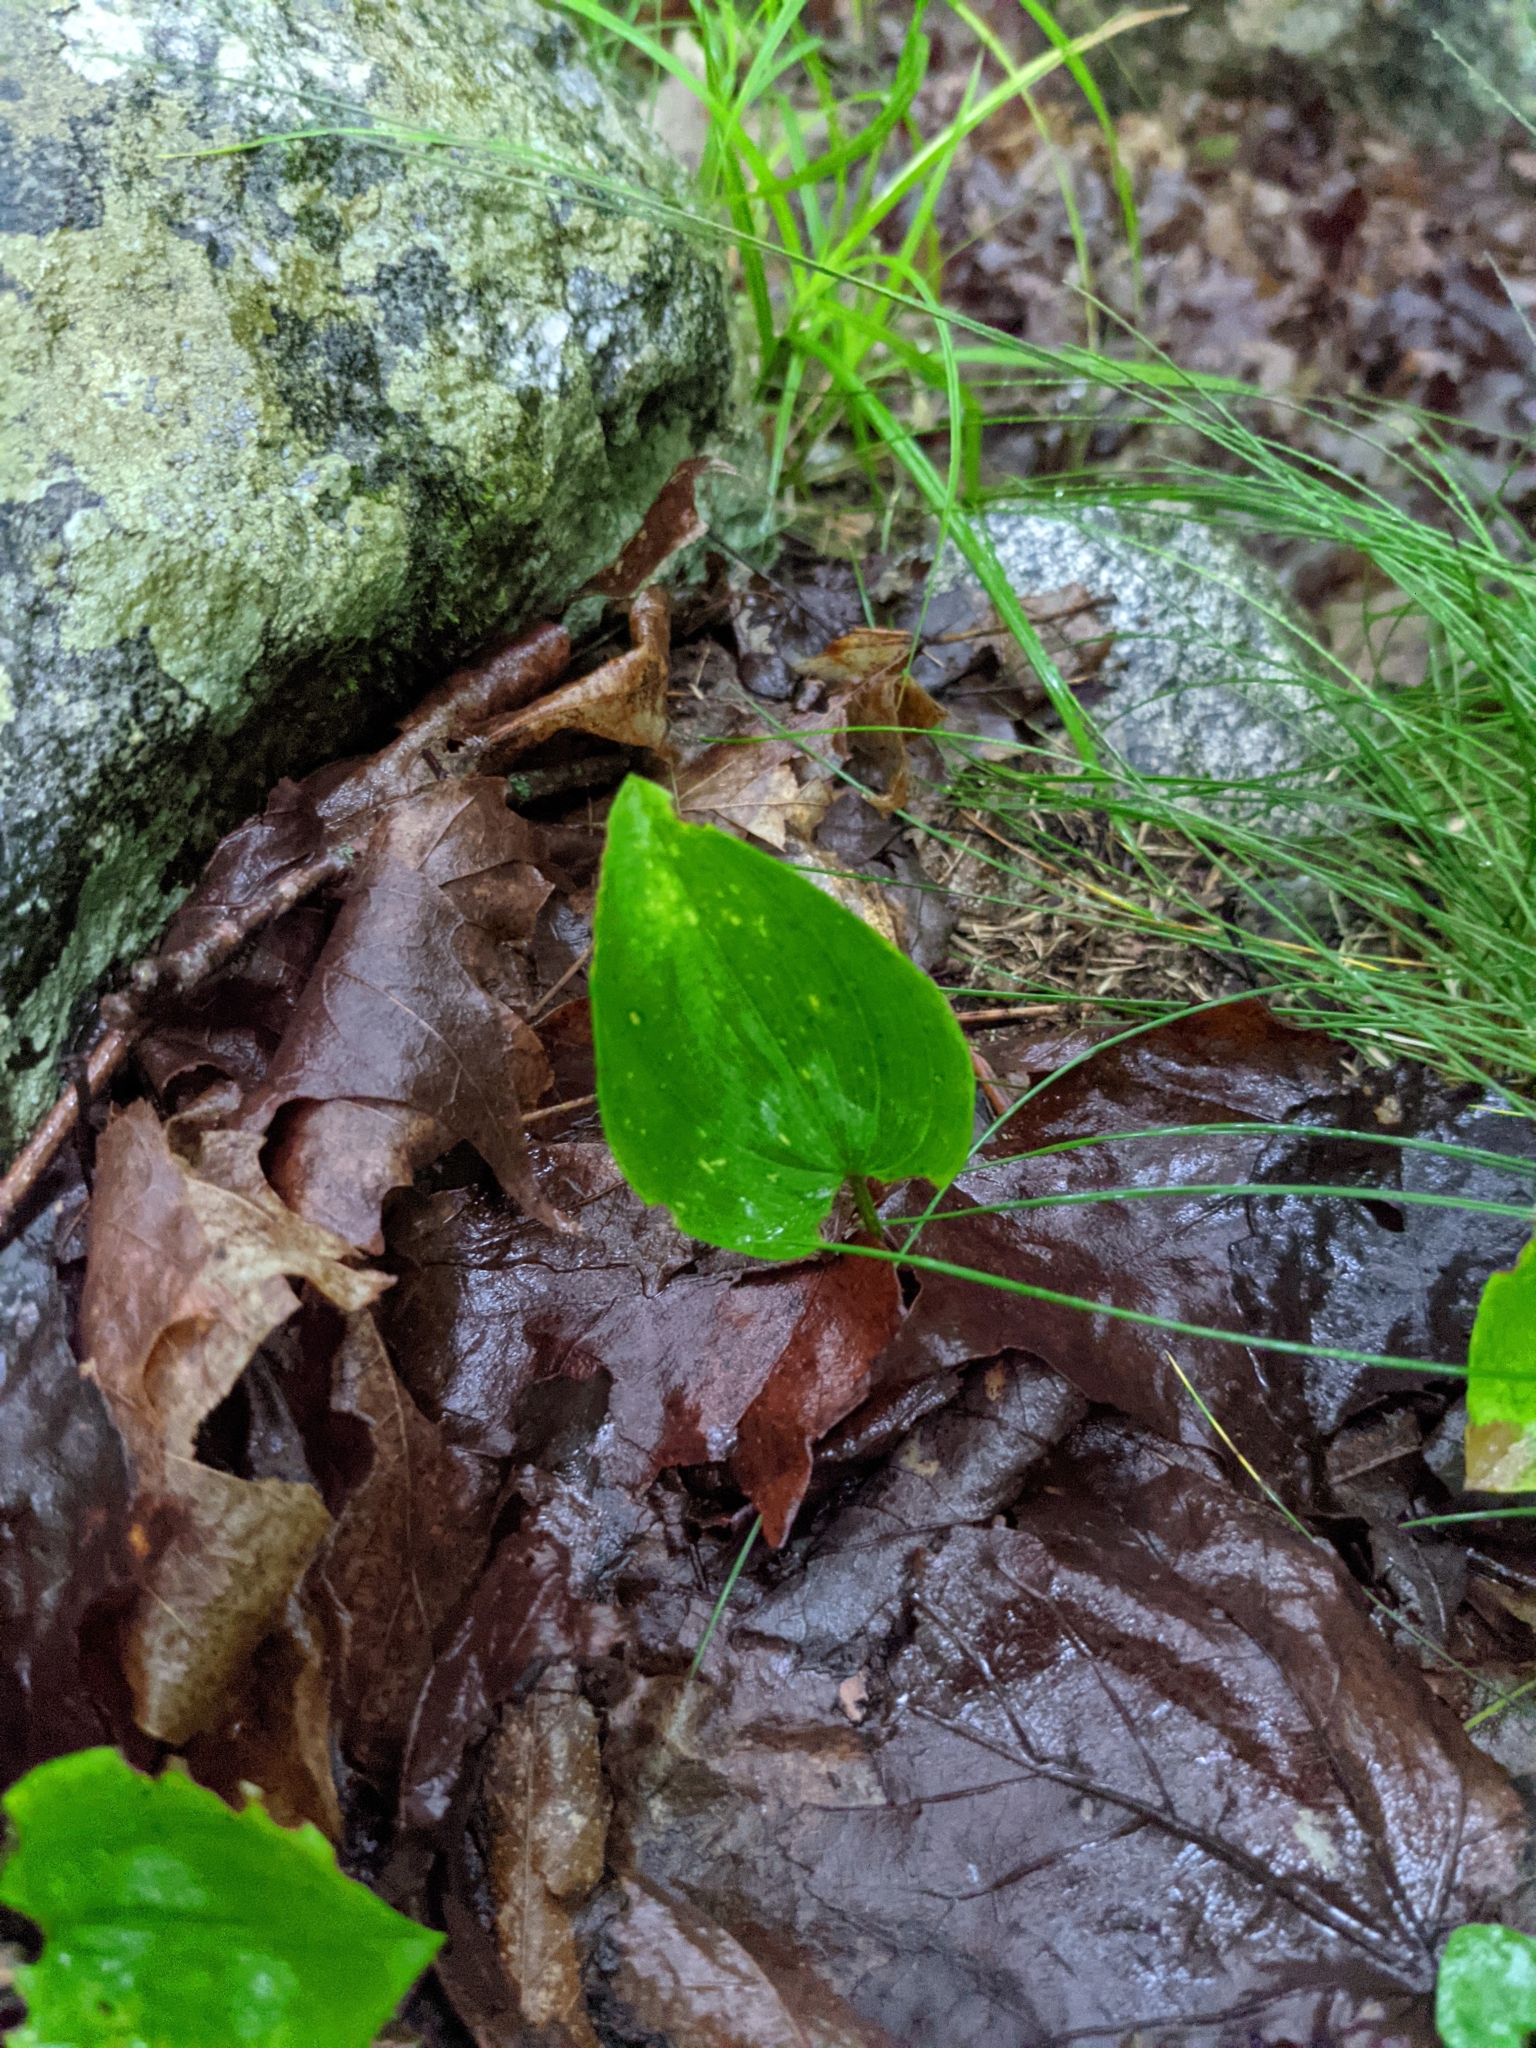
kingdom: Plantae
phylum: Tracheophyta
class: Liliopsida
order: Asparagales
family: Asparagaceae
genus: Maianthemum
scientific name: Maianthemum canadense
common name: False lily-of-the-valley
